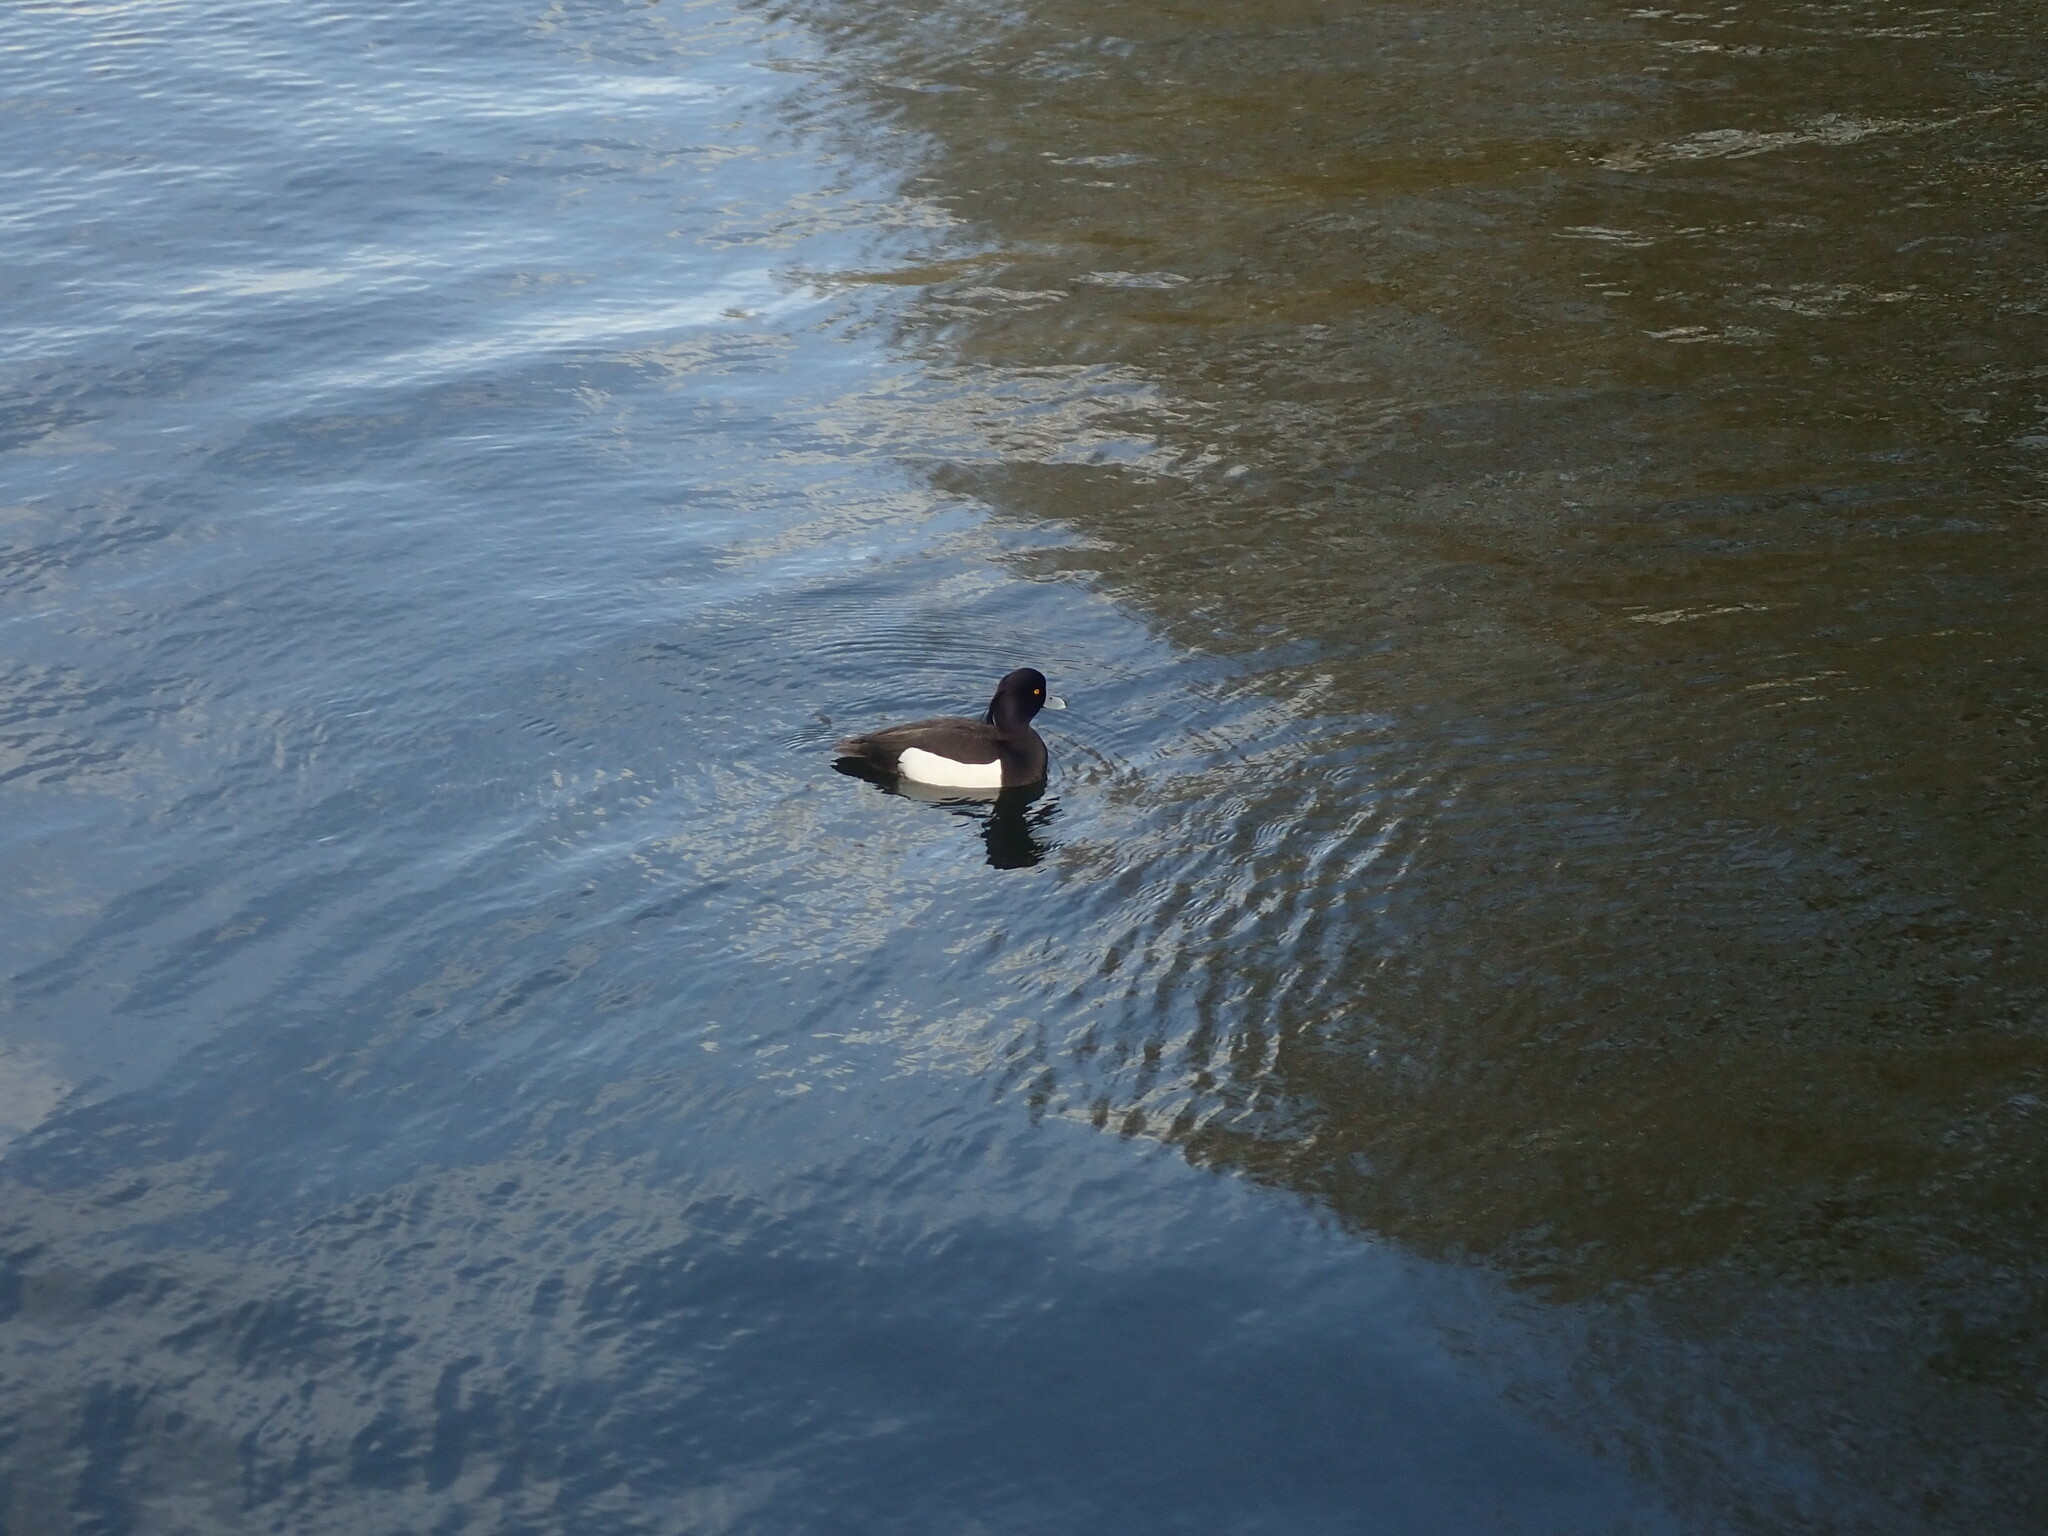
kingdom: Animalia
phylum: Chordata
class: Aves
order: Anseriformes
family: Anatidae
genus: Aythya
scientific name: Aythya fuligula
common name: Tufted duck
